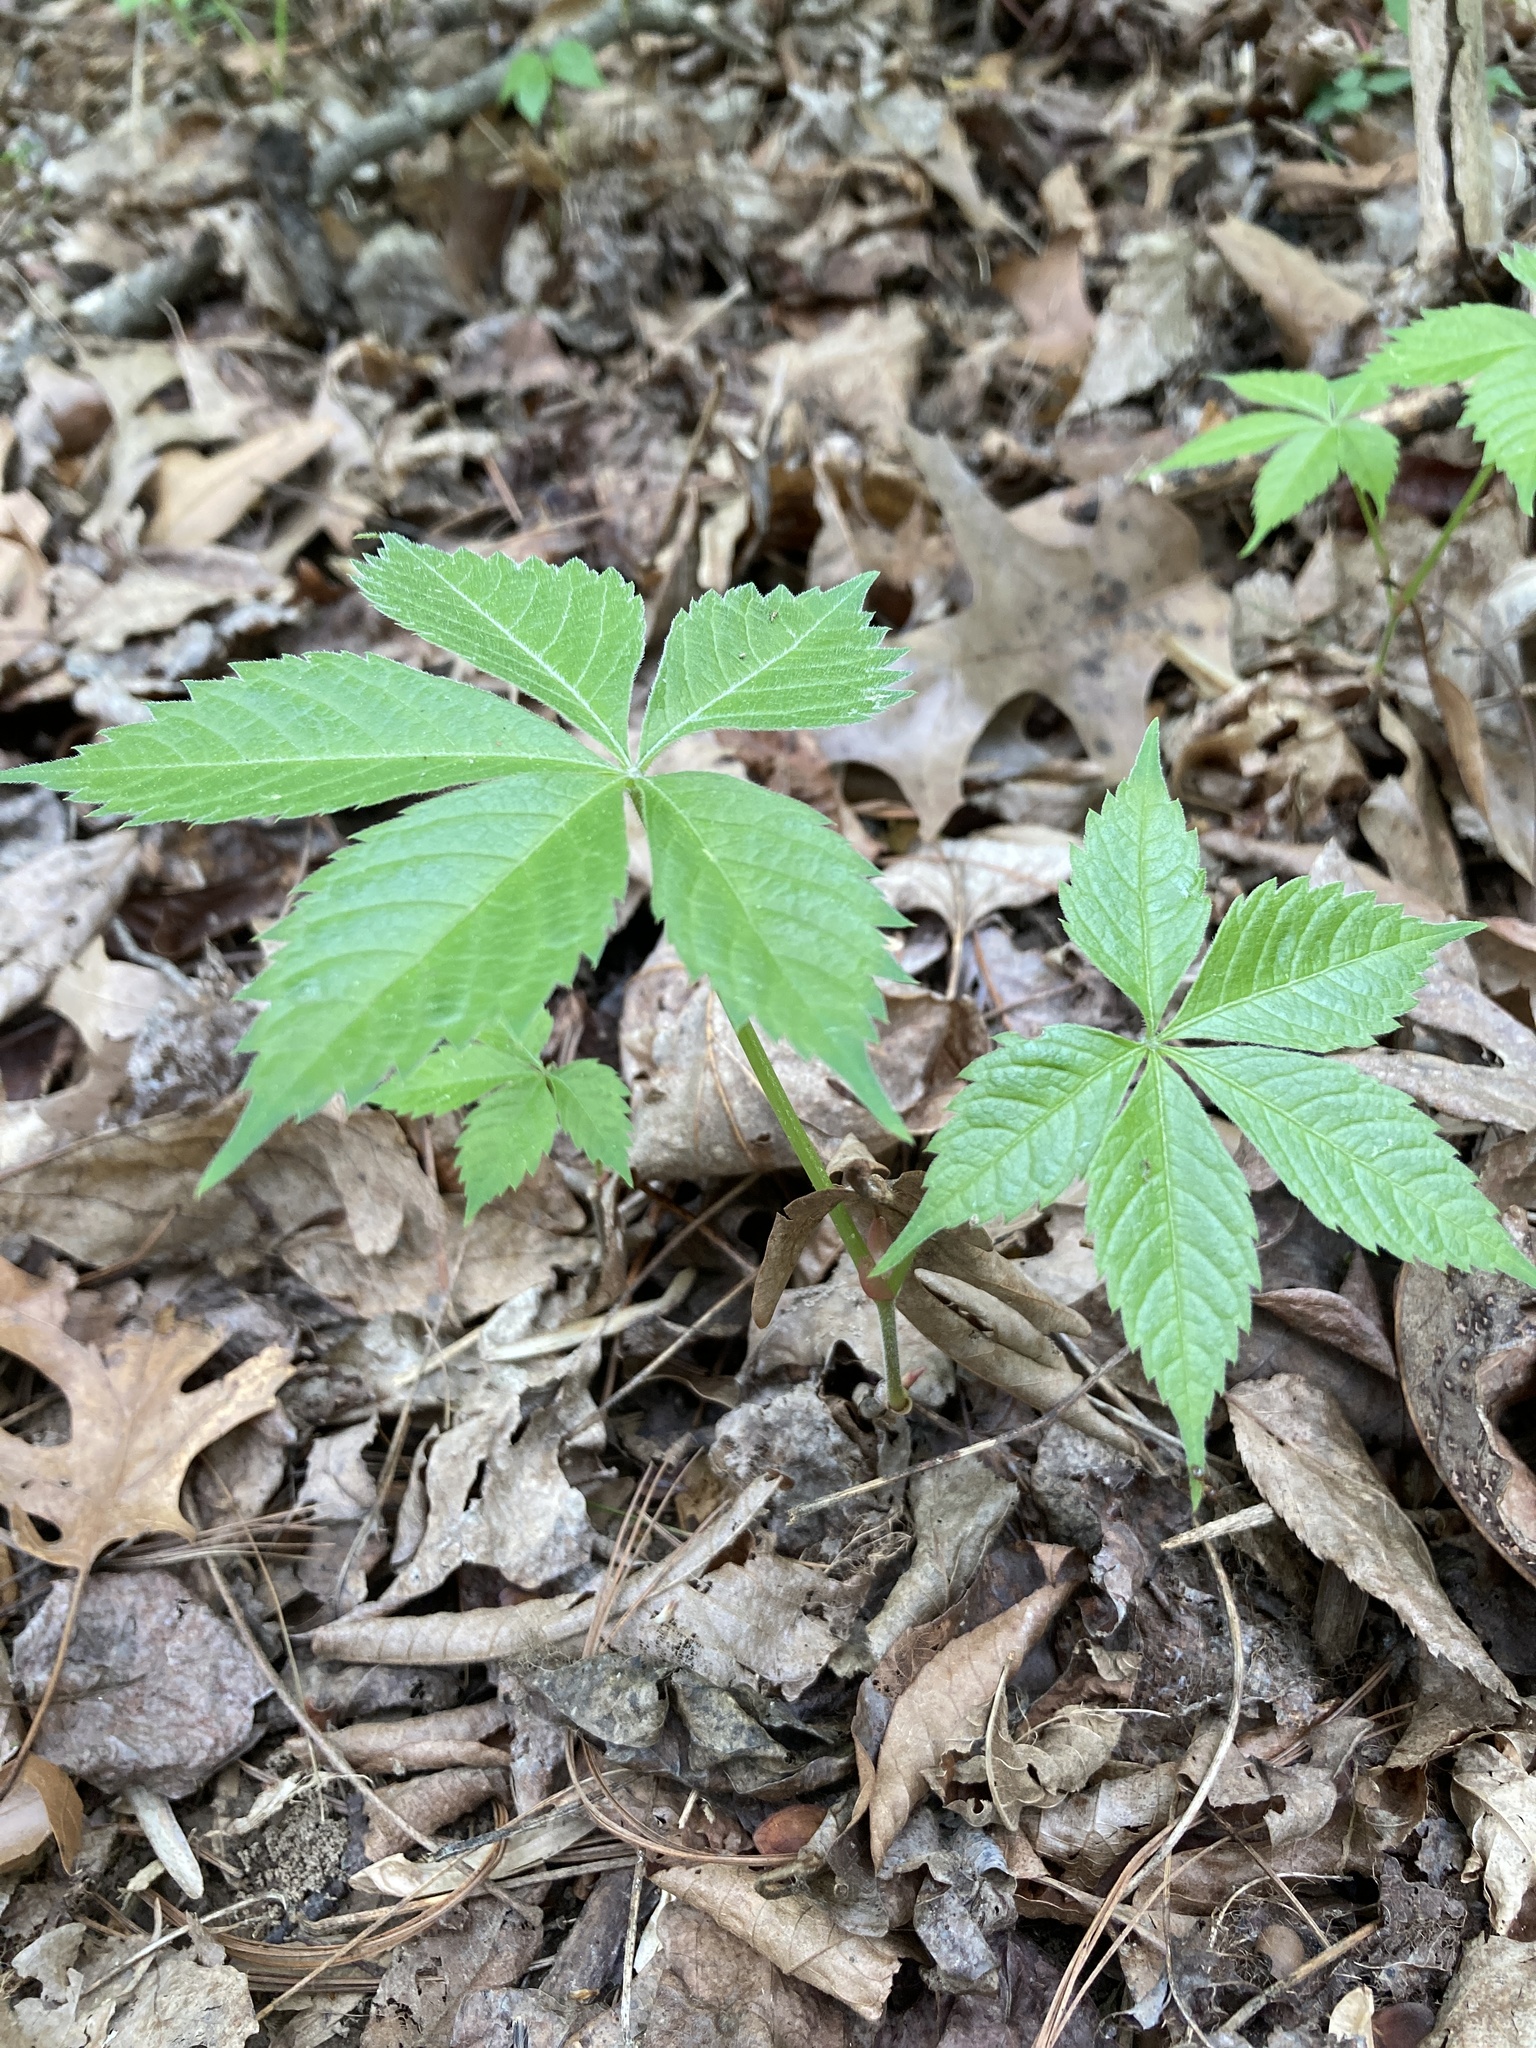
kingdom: Plantae
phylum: Tracheophyta
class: Magnoliopsida
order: Vitales
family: Vitaceae
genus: Parthenocissus
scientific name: Parthenocissus quinquefolia
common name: Virginia-creeper
